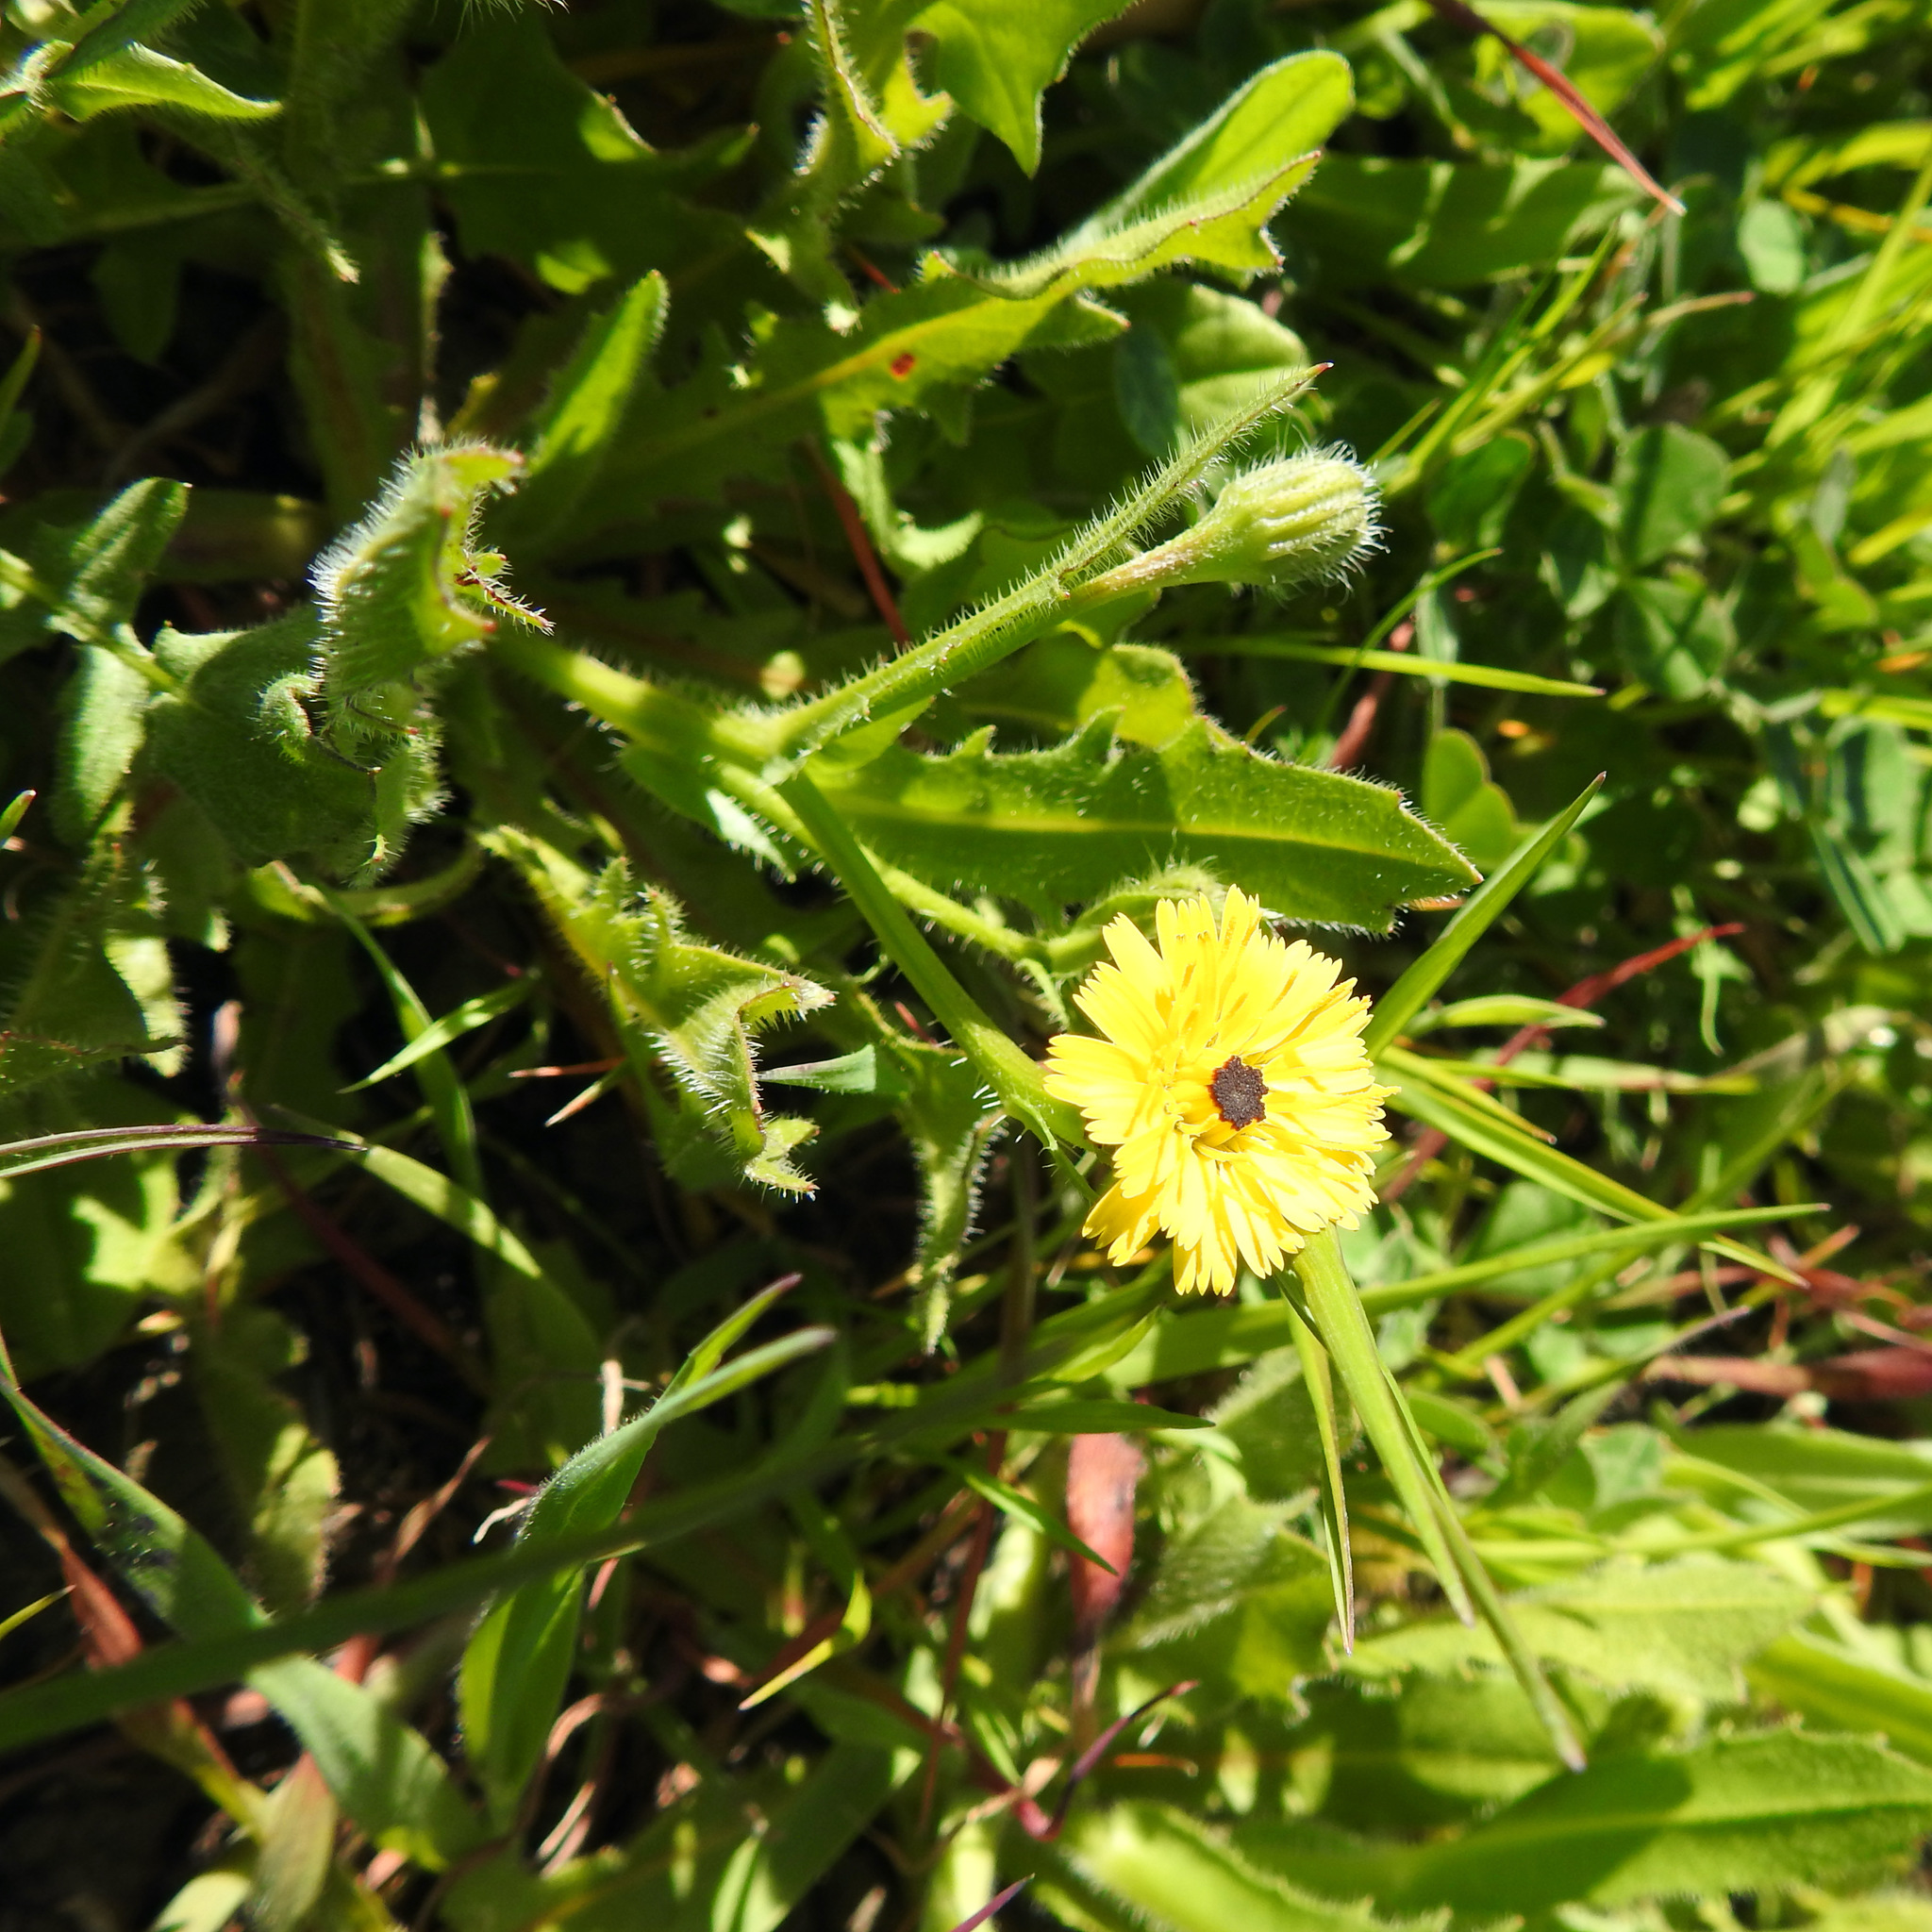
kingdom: Plantae
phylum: Tracheophyta
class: Magnoliopsida
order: Asterales
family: Asteraceae
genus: Hedypnois
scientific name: Hedypnois rhagadioloides
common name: Cretan weed
